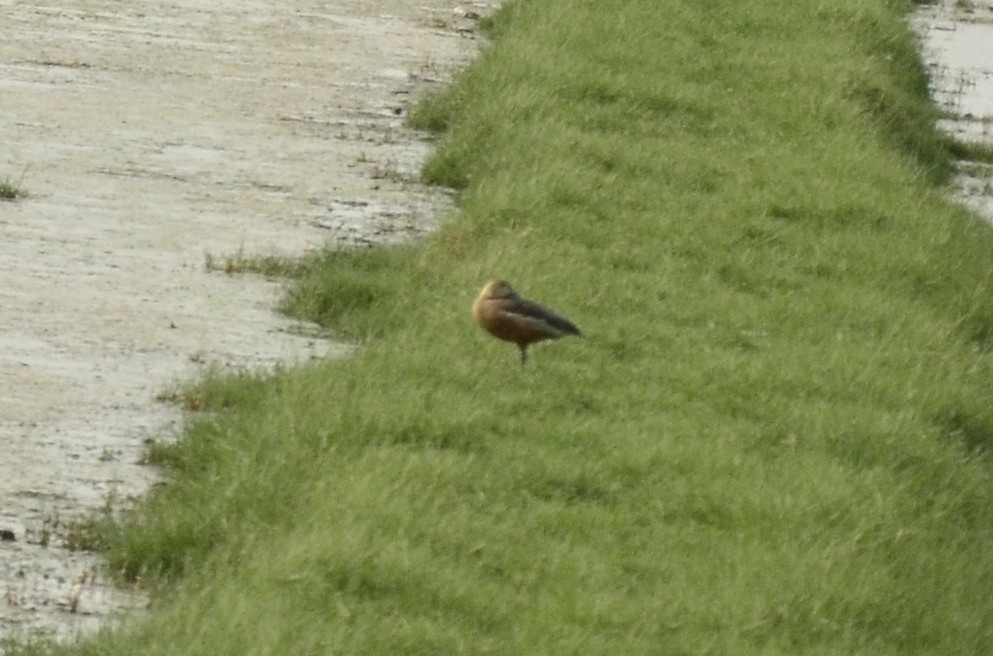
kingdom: Animalia
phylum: Chordata
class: Aves
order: Anseriformes
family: Anatidae
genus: Dendrocygna
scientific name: Dendrocygna javanica
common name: Lesser whistling-duck
